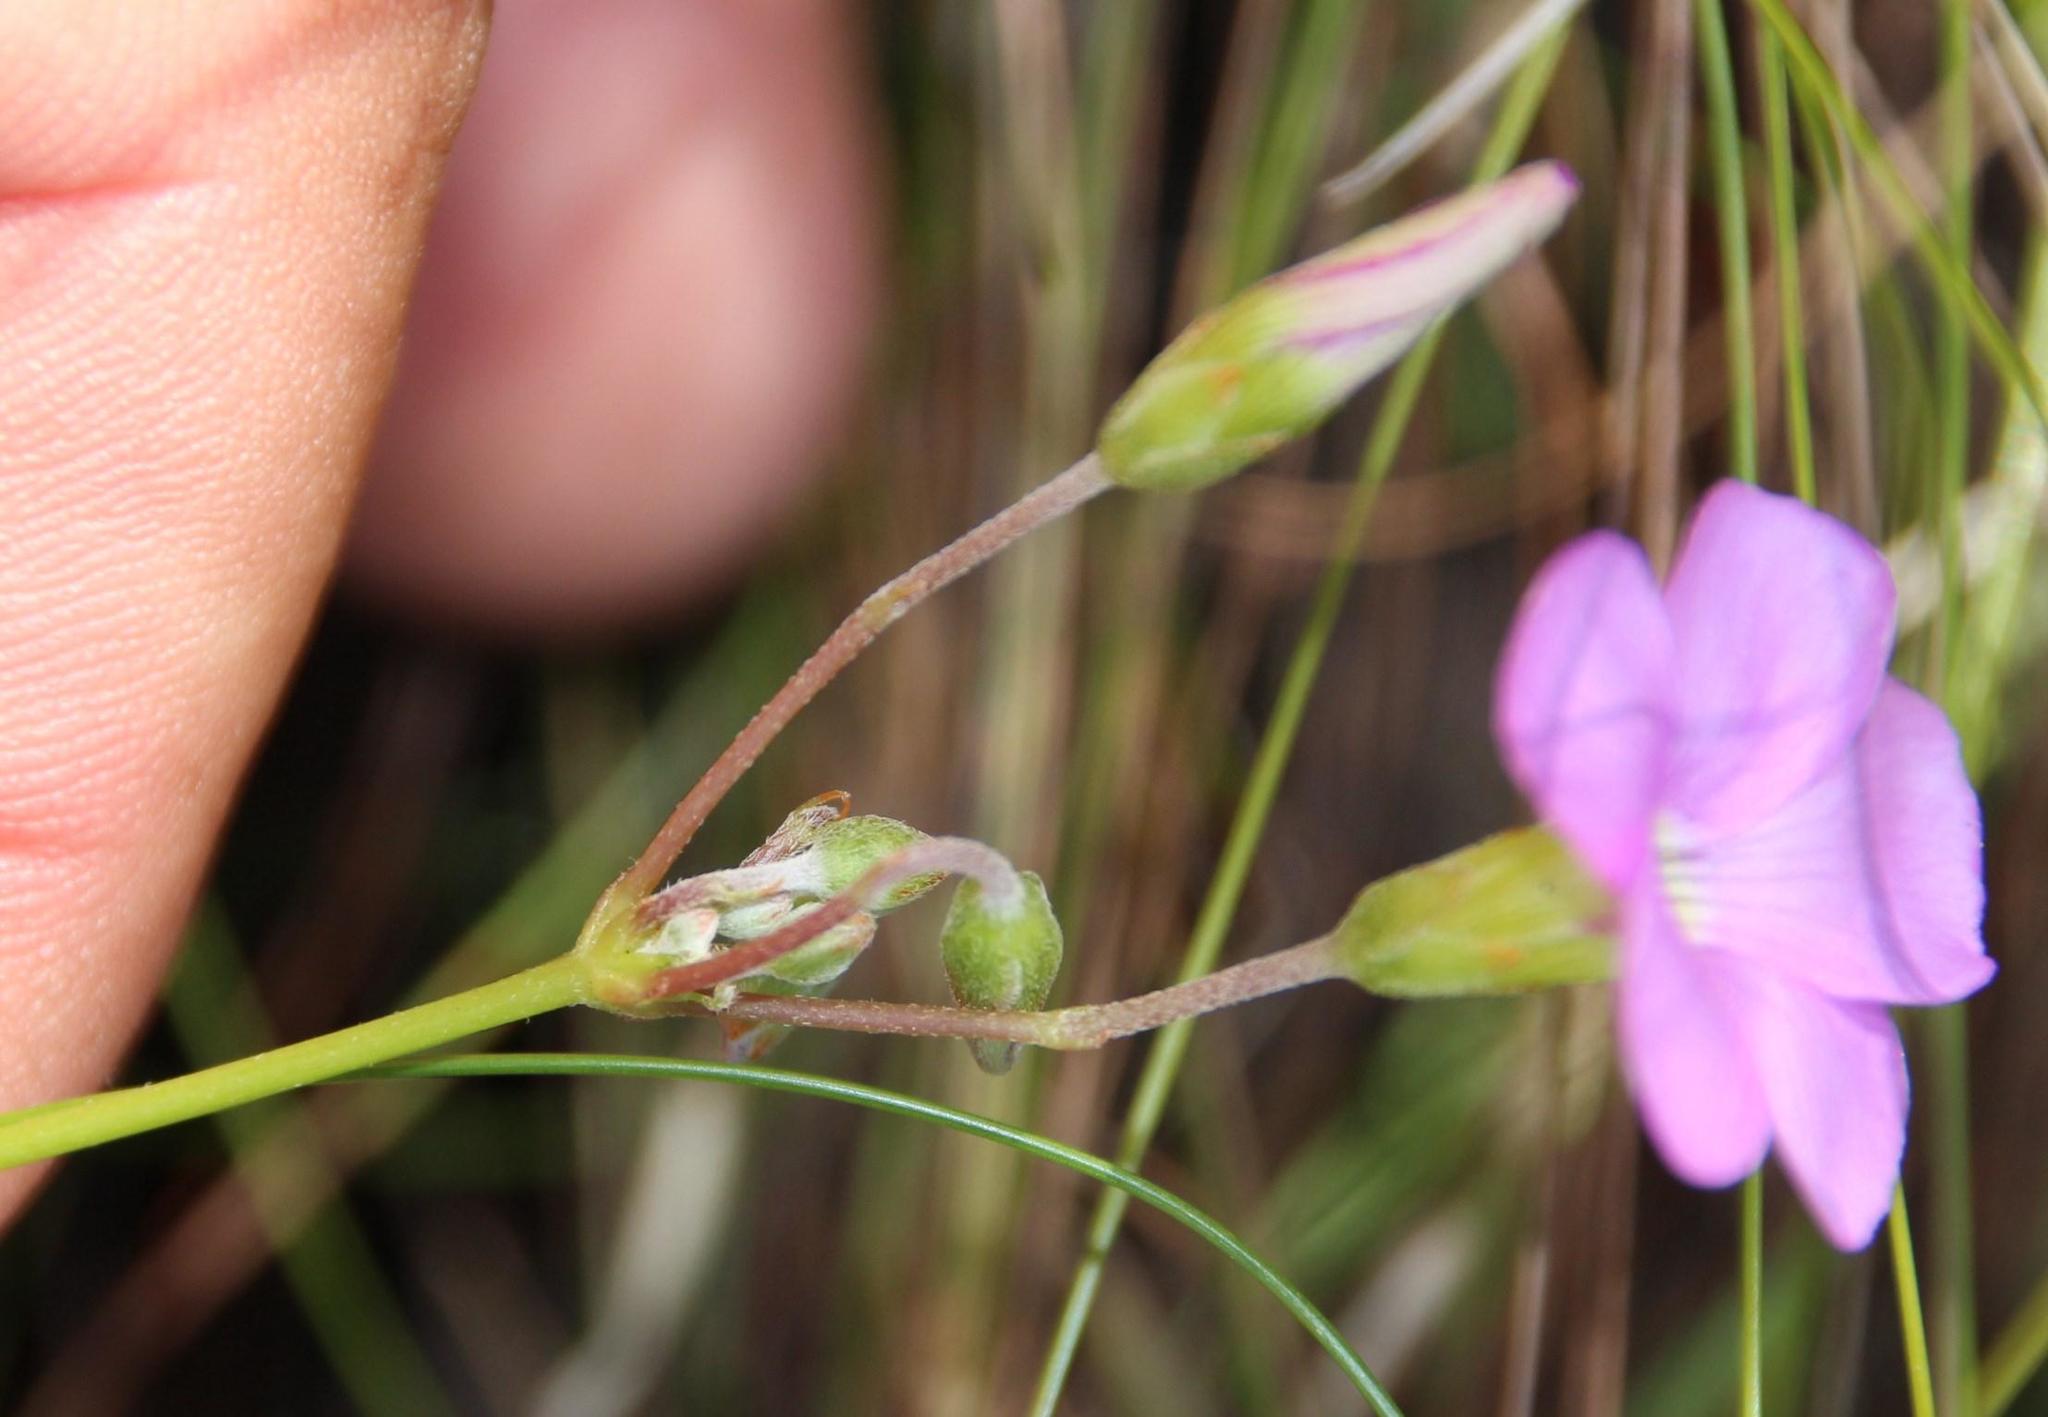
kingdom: Plantae
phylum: Tracheophyta
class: Magnoliopsida
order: Oxalidales
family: Oxalidaceae
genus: Oxalis
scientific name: Oxalis bifida
